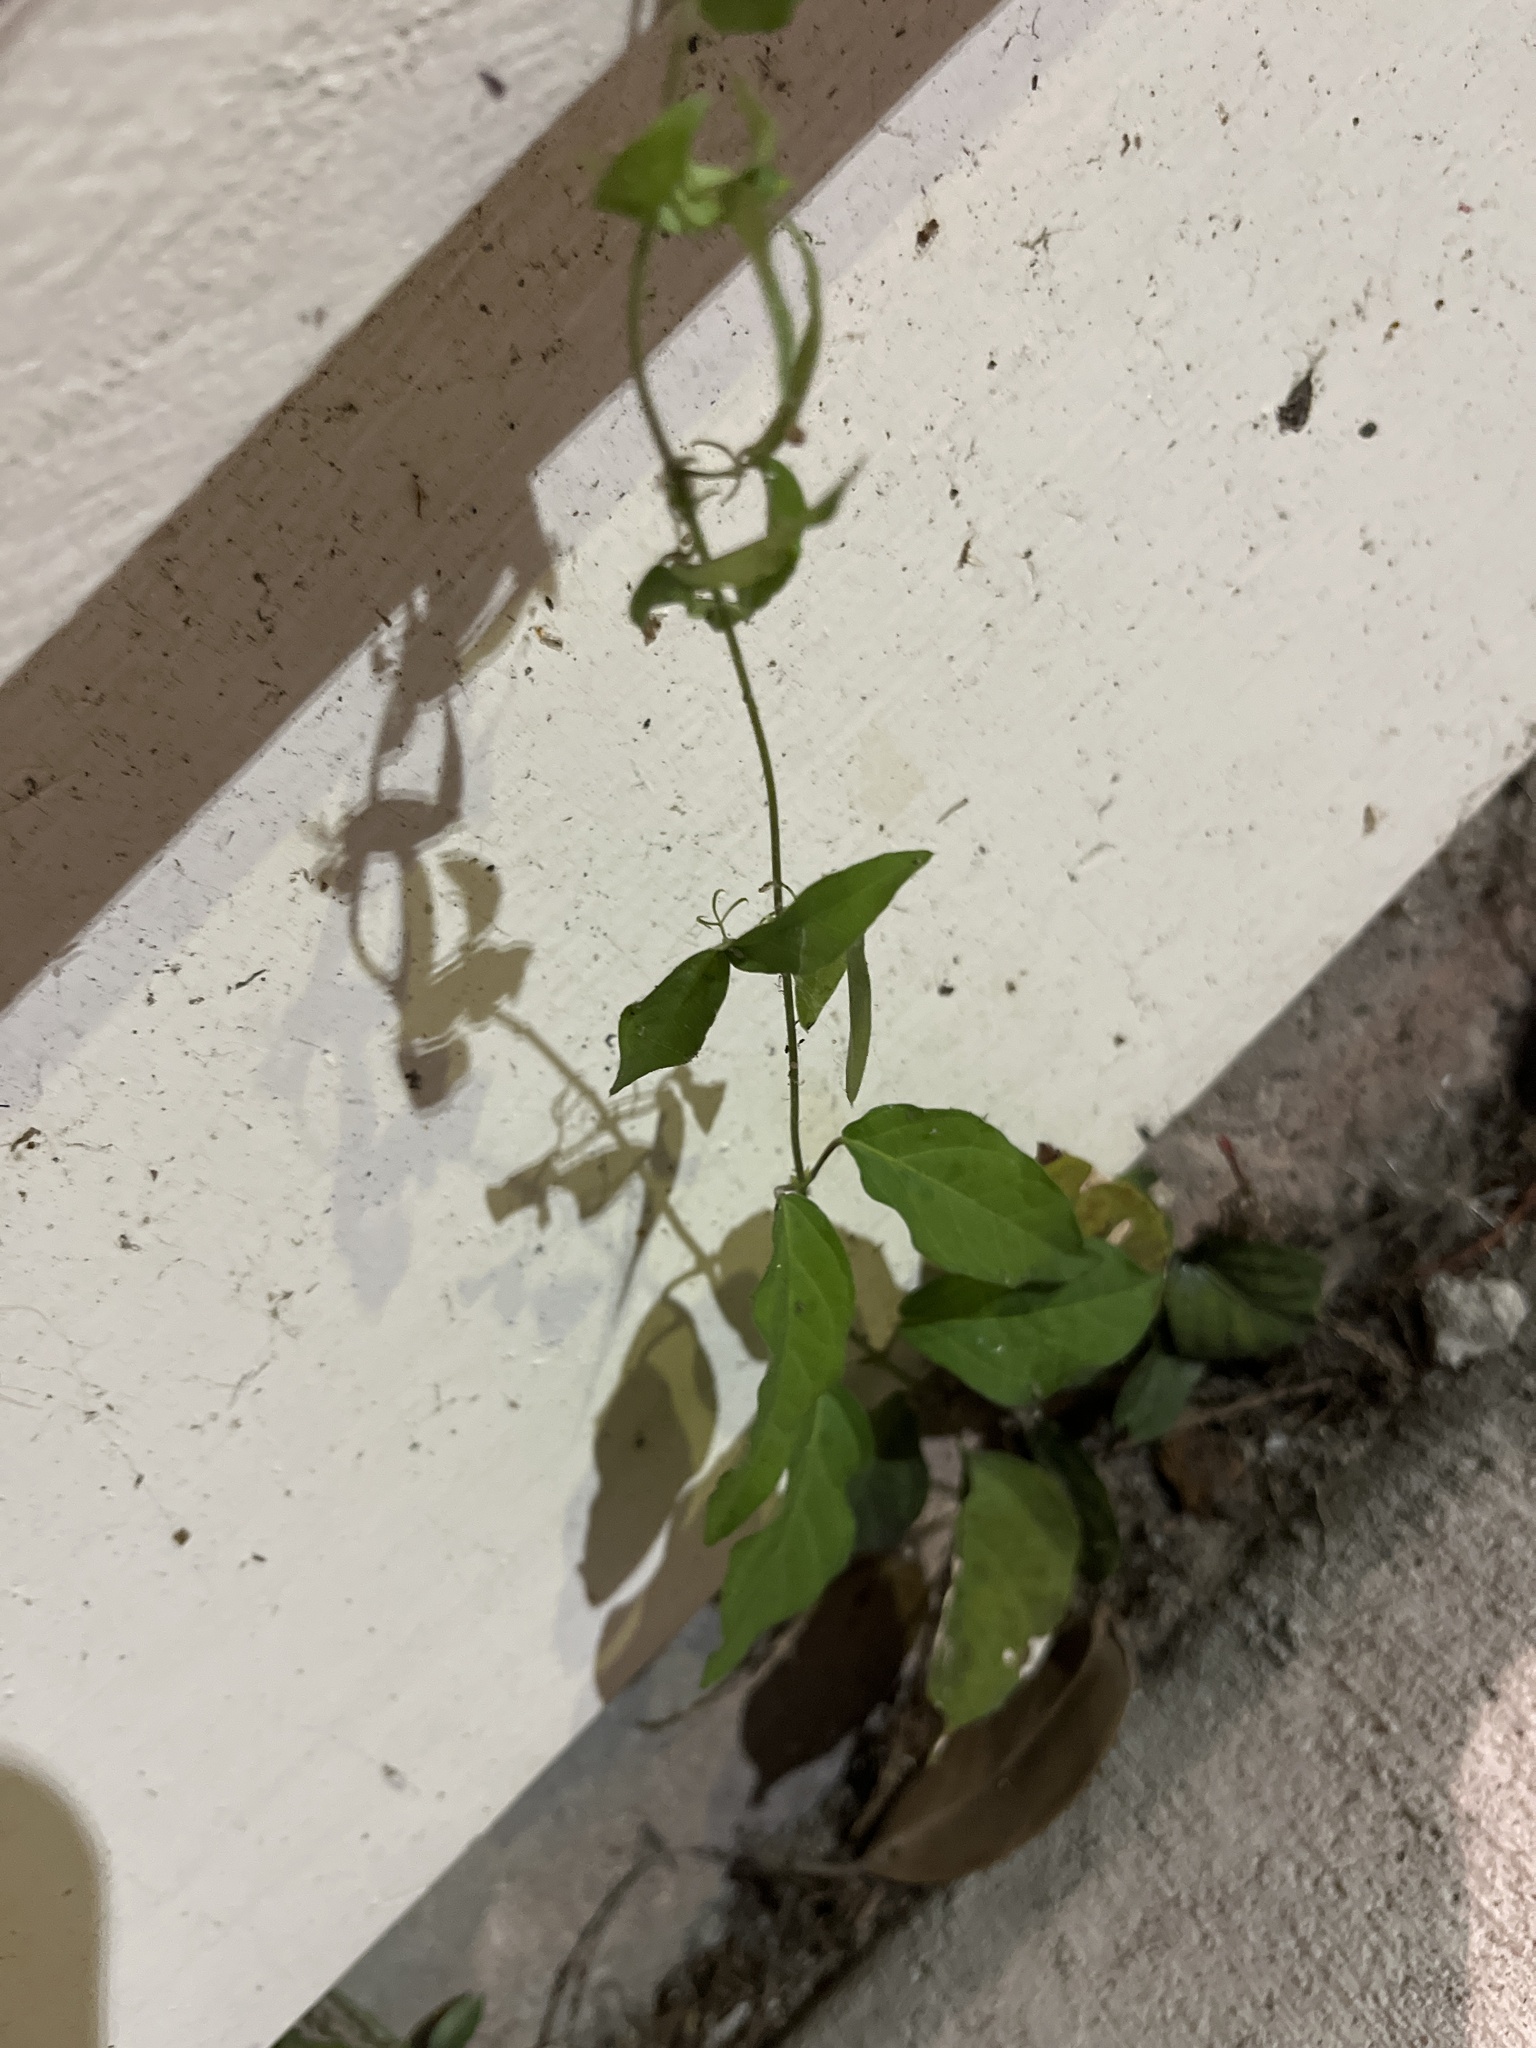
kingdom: Plantae
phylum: Tracheophyta
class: Magnoliopsida
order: Lamiales
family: Bignoniaceae
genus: Dolichandra
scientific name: Dolichandra unguis-cati
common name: Catclaw vine
